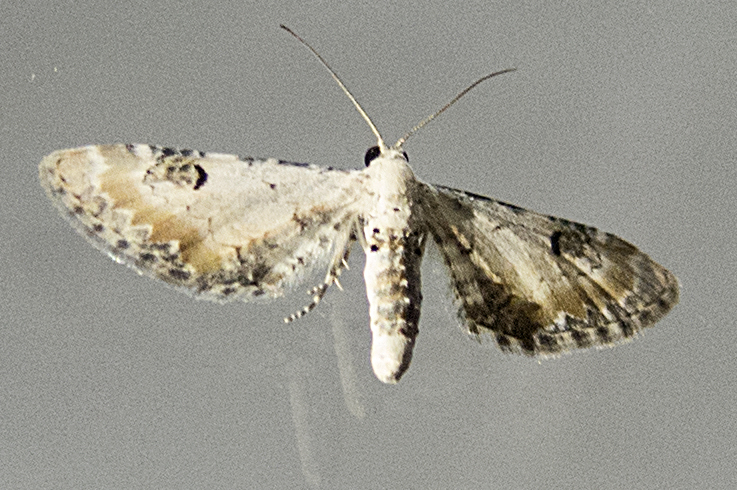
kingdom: Animalia
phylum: Arthropoda
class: Insecta
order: Lepidoptera
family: Geometridae
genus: Eupithecia
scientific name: Eupithecia centaureata
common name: Lime-speck pug
